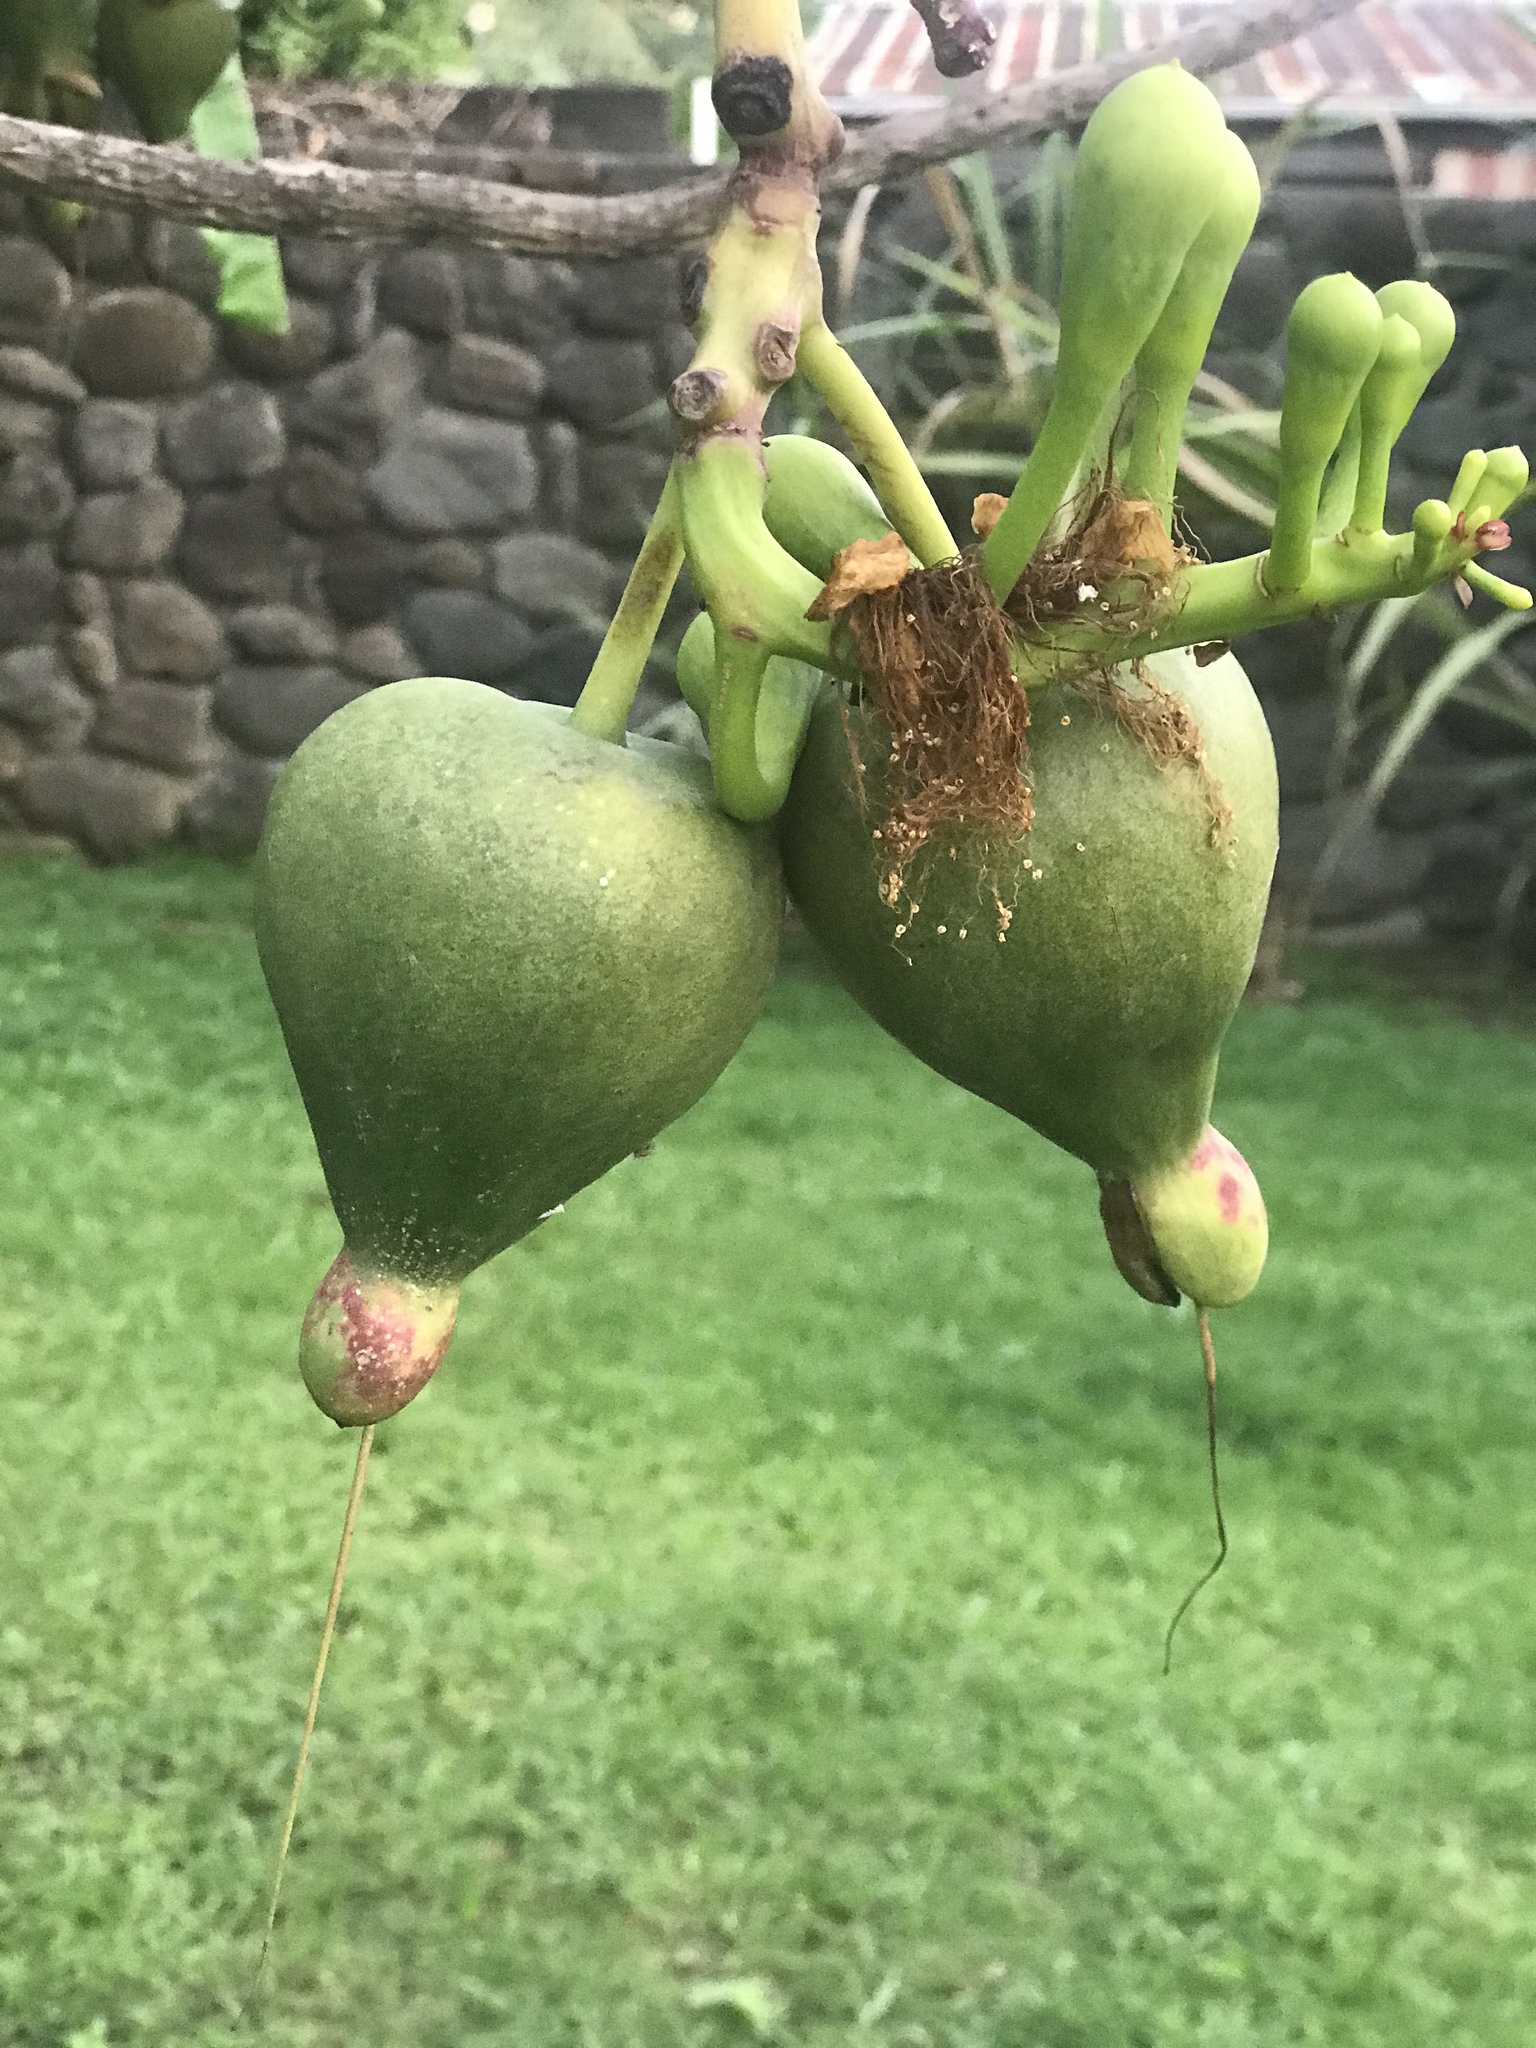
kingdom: Plantae
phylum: Tracheophyta
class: Magnoliopsida
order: Ericales
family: Lecythidaceae
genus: Barringtonia
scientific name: Barringtonia asiatica
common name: Mango-pine
